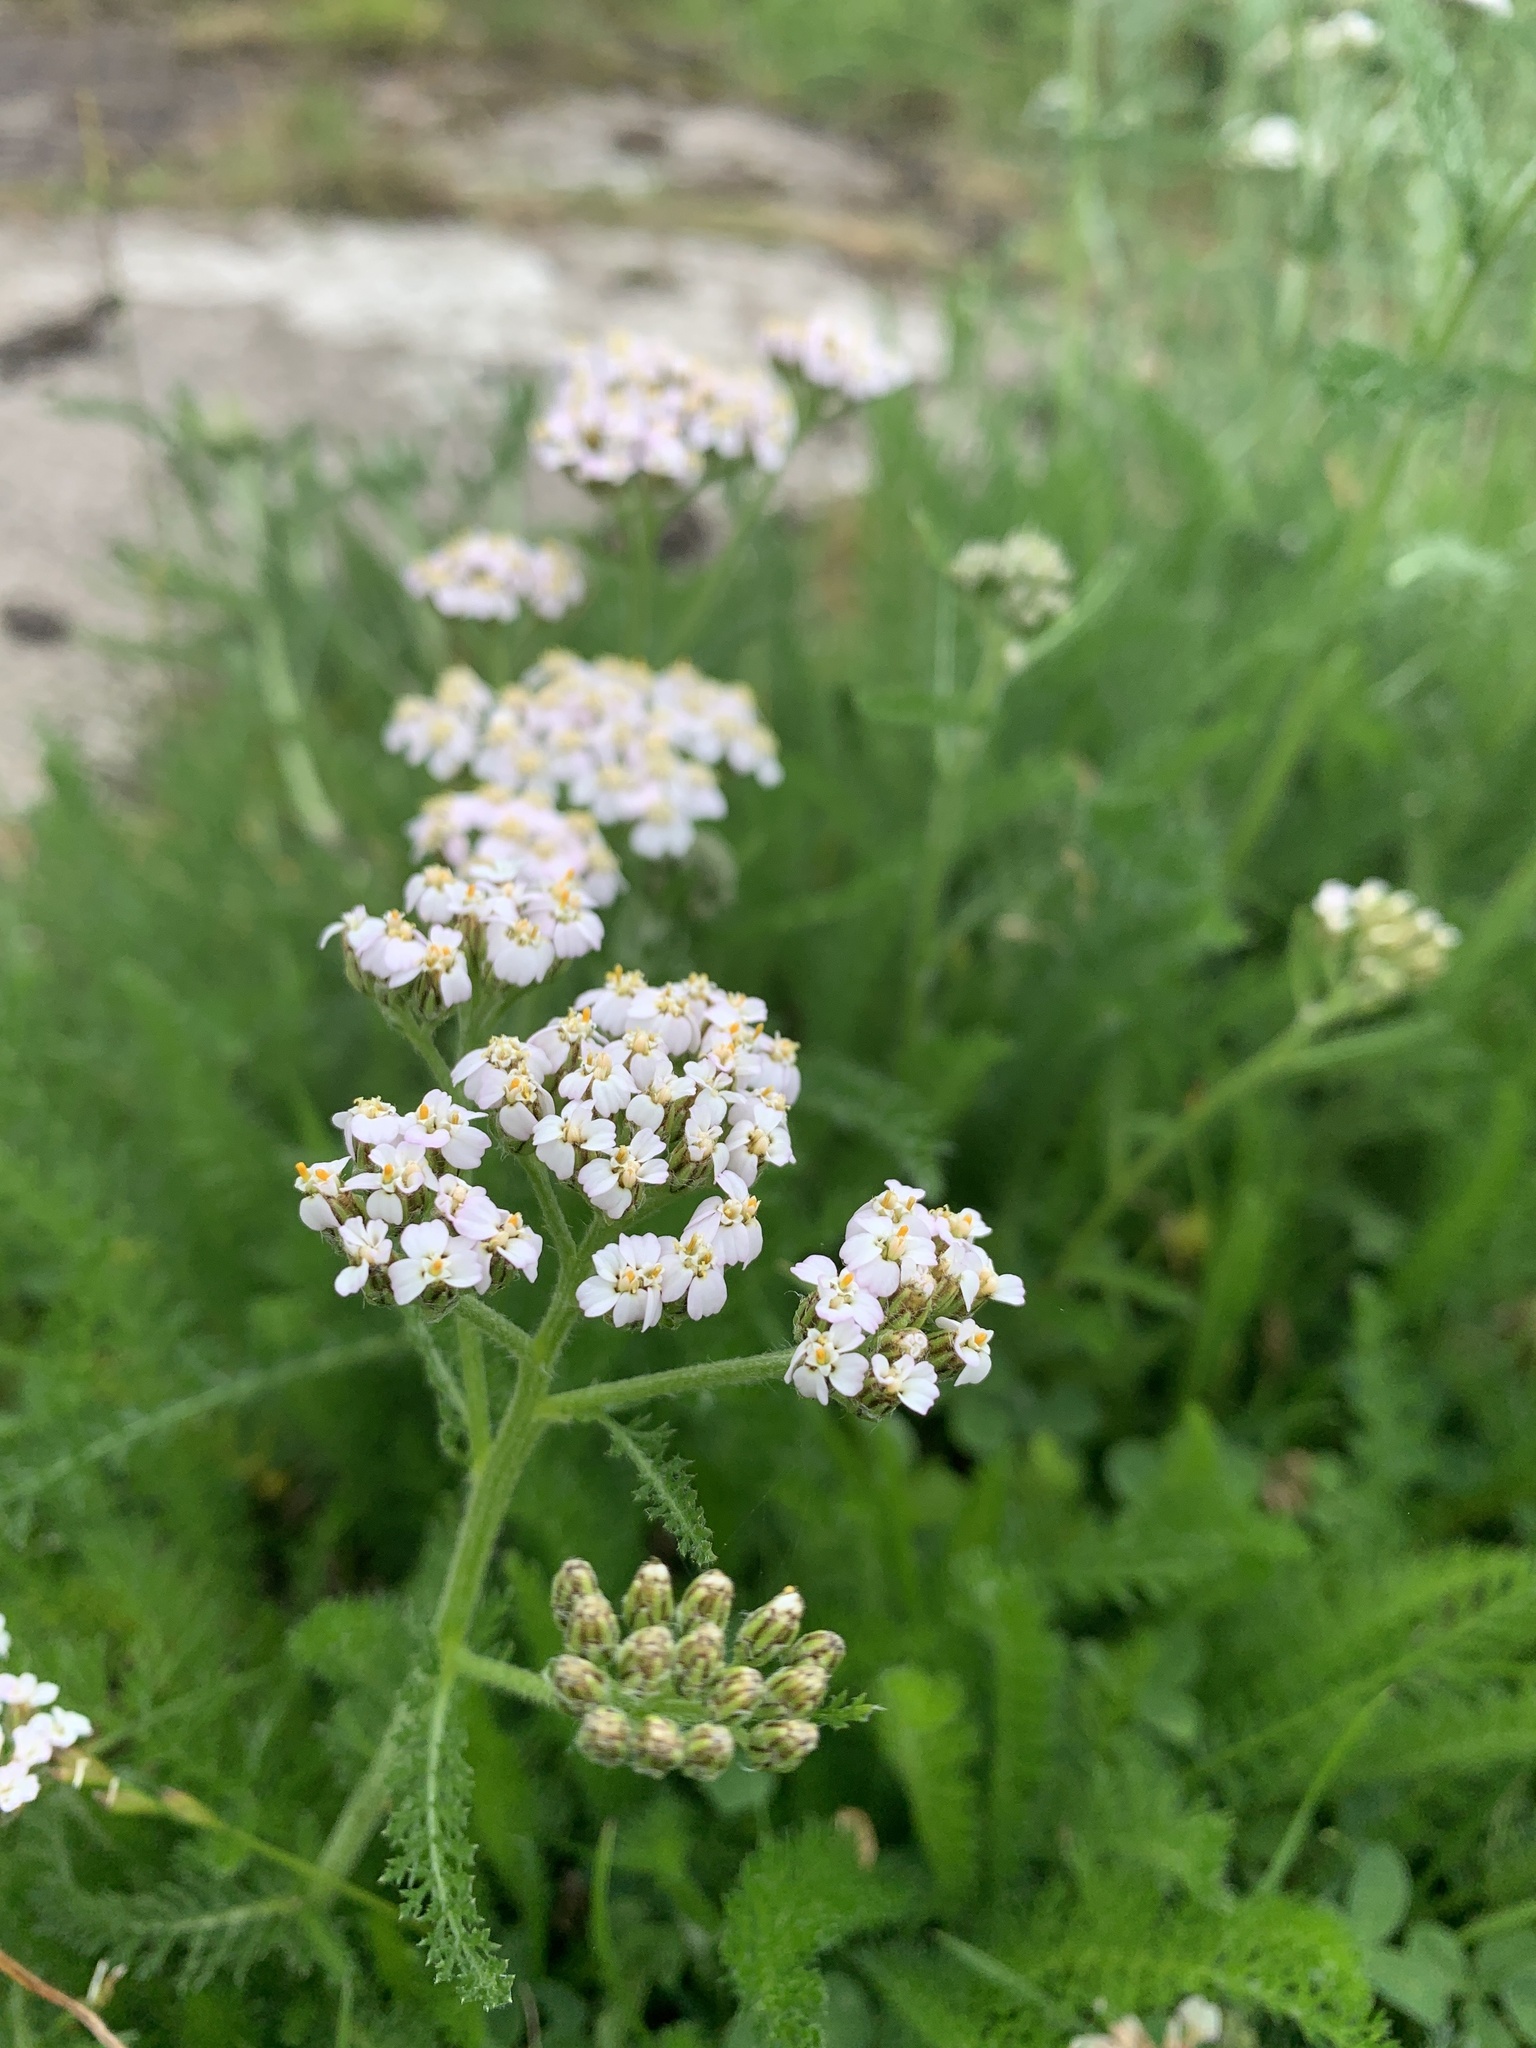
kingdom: Plantae
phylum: Tracheophyta
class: Magnoliopsida
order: Asterales
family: Asteraceae
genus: Achillea
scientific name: Achillea millefolium
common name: Yarrow
